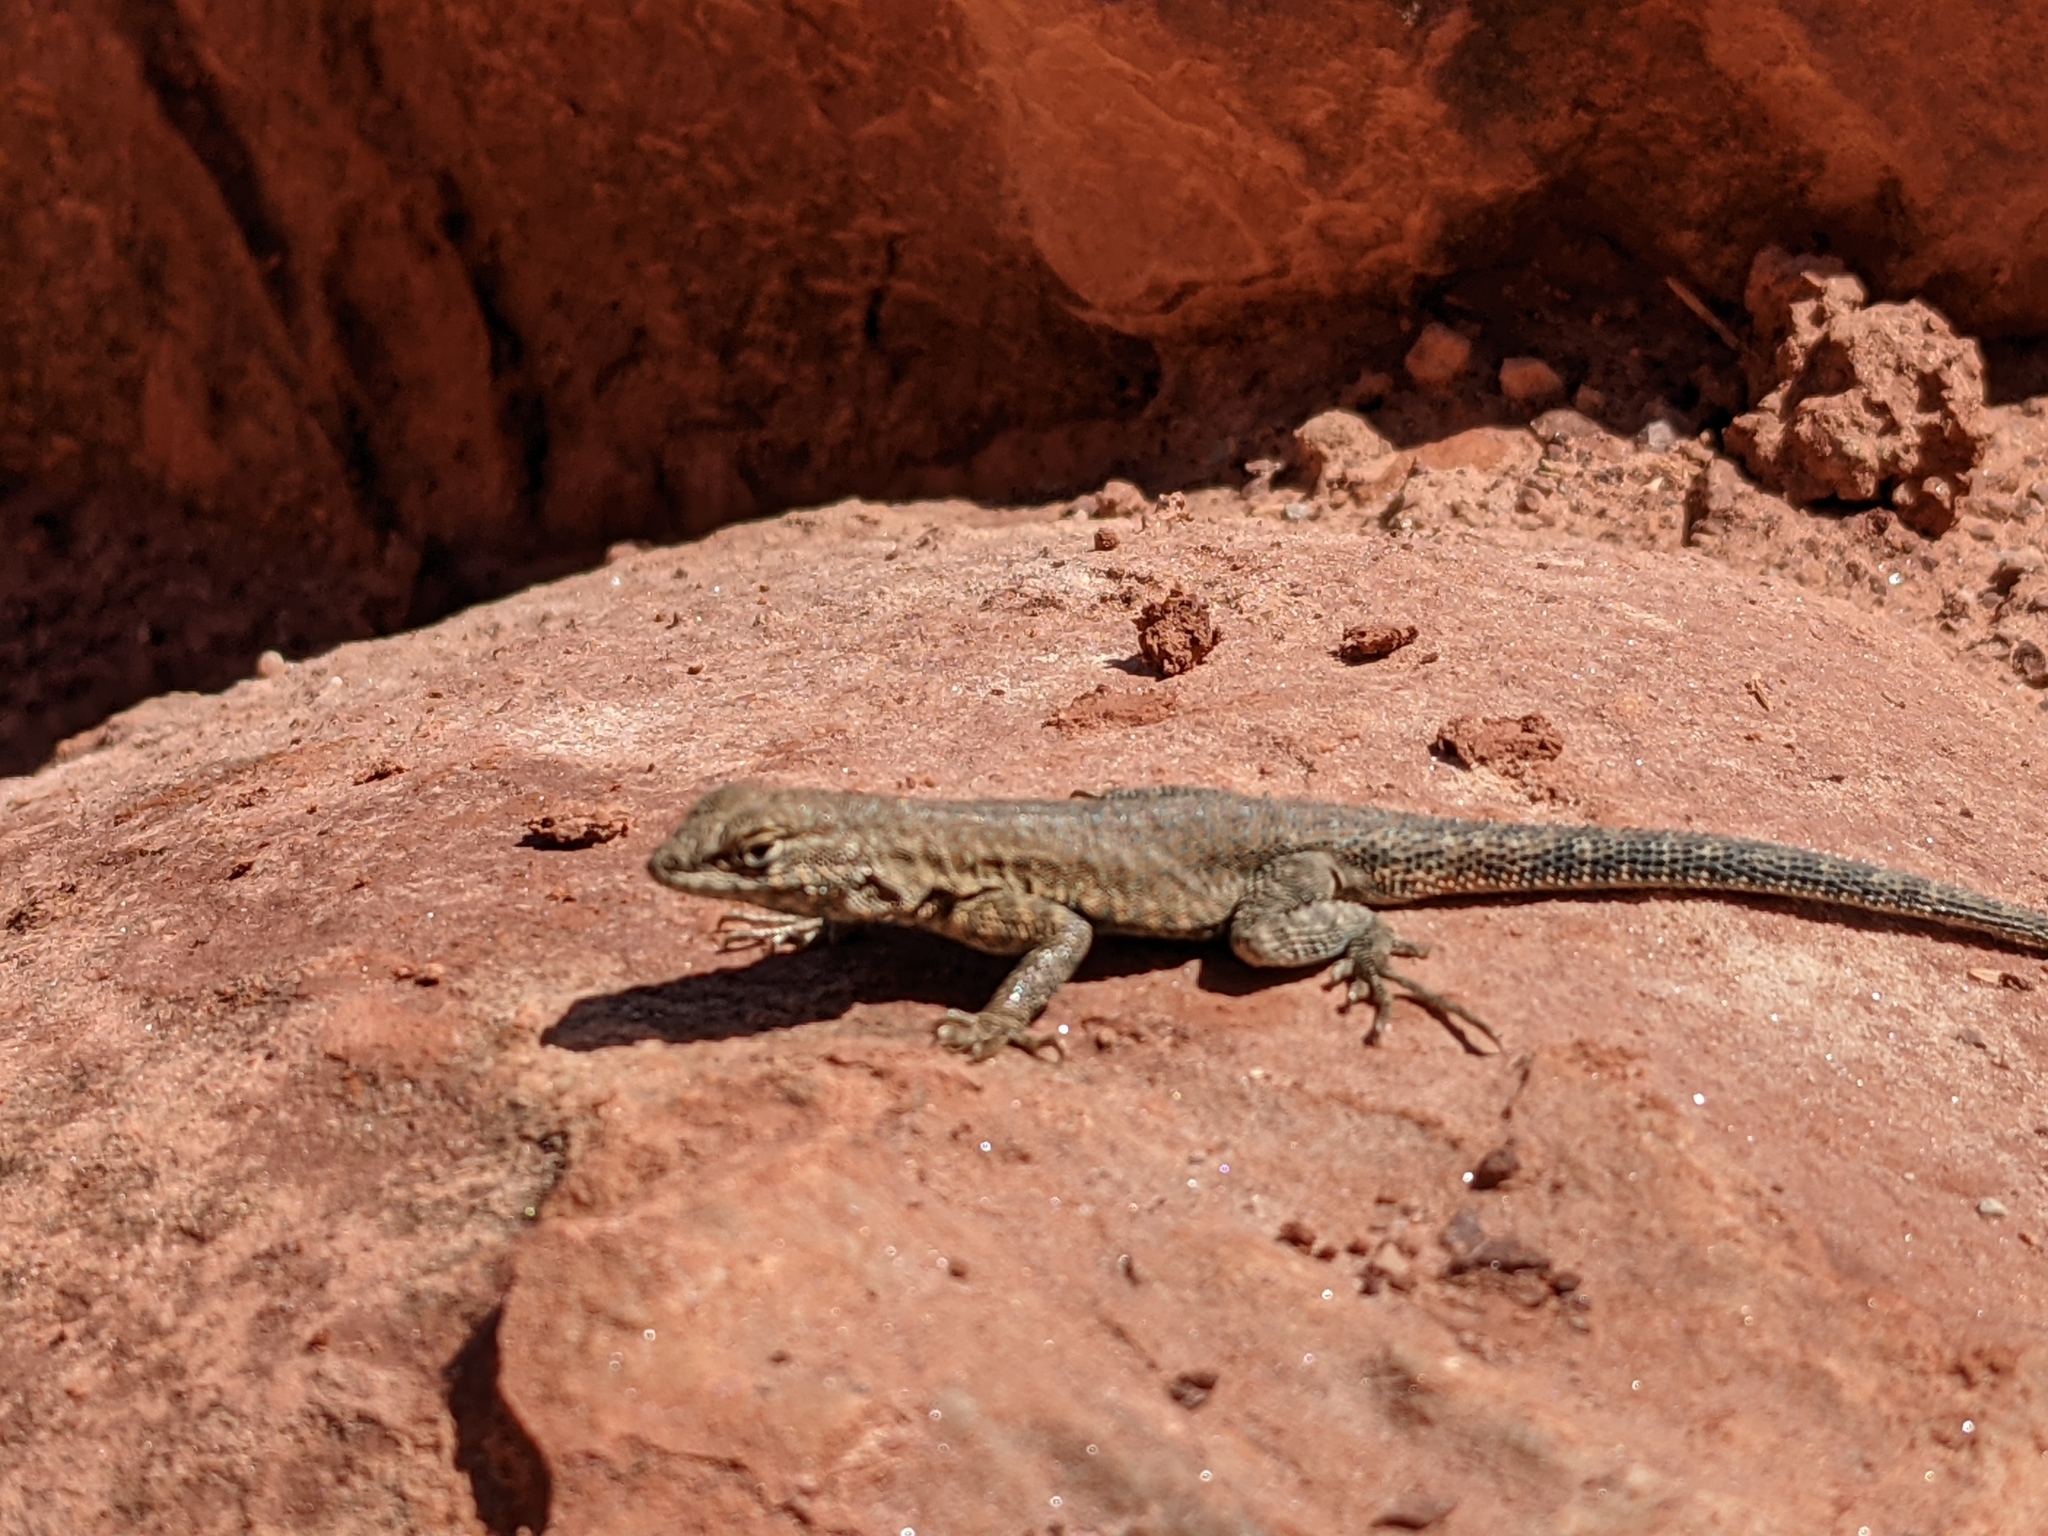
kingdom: Animalia
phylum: Chordata
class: Squamata
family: Phrynosomatidae
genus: Uta
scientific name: Uta stansburiana
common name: Side-blotched lizard
